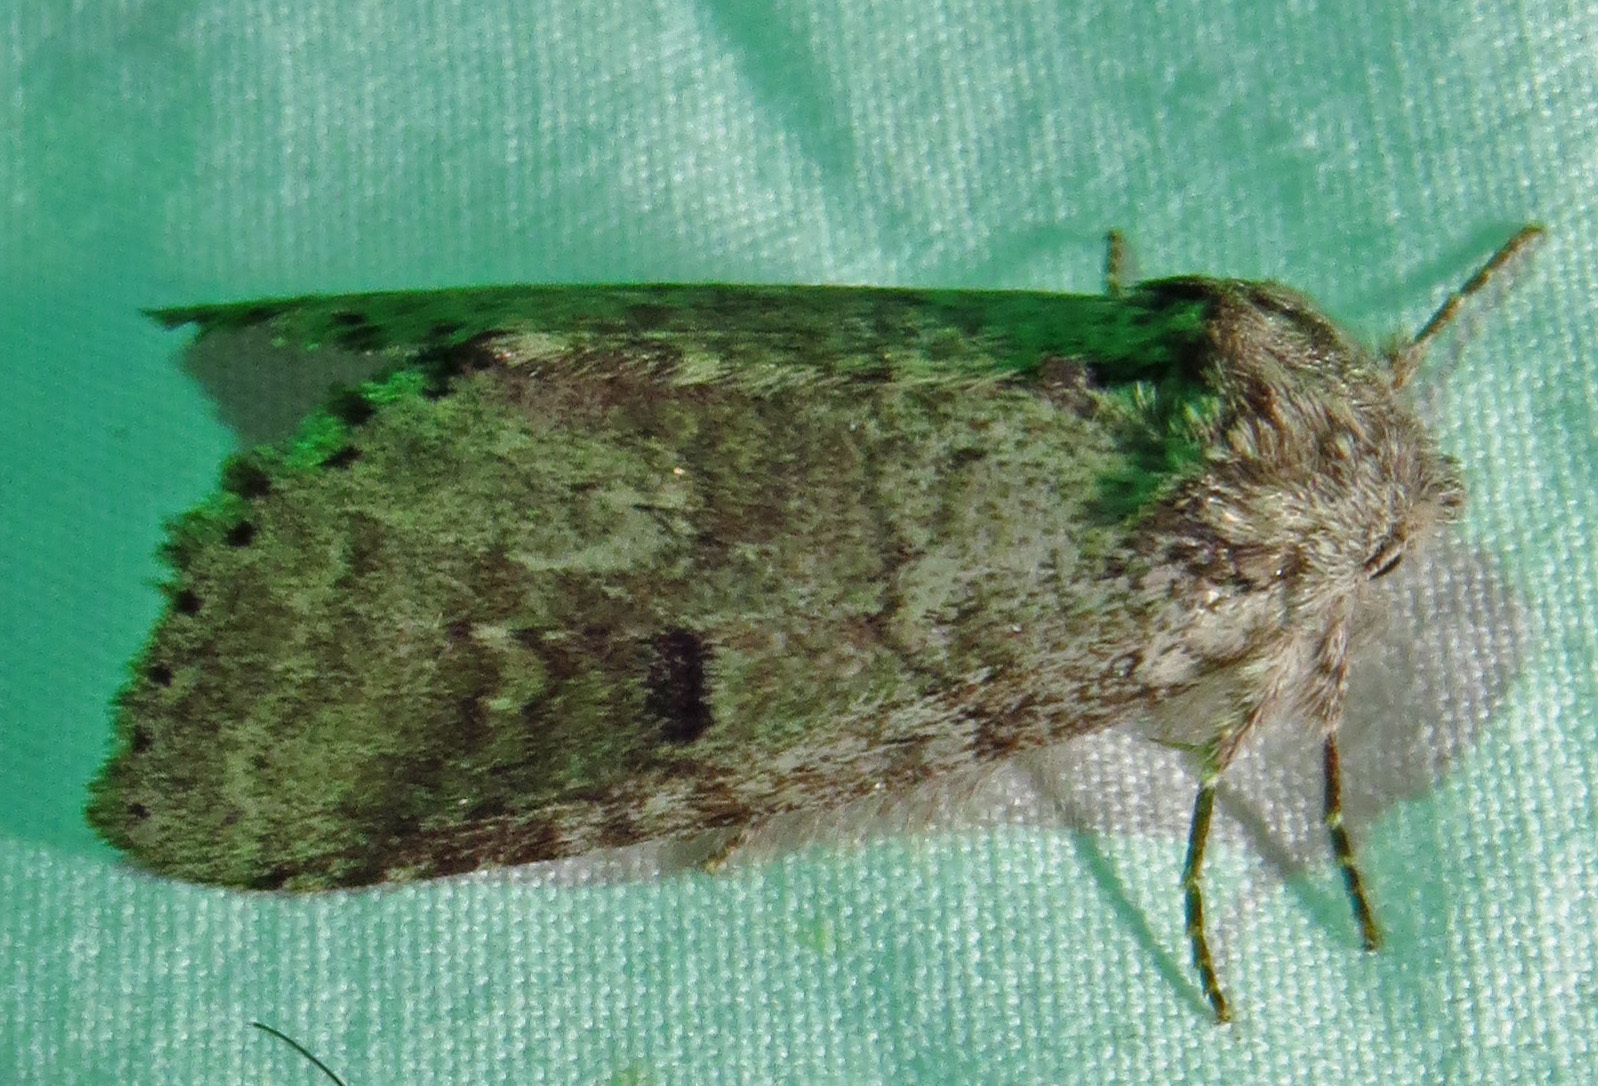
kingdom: Animalia
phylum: Arthropoda
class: Insecta
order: Lepidoptera
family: Notodontidae
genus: Lochmaeus
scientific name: Lochmaeus manteo
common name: Variable oakleaf caterpillar moth
